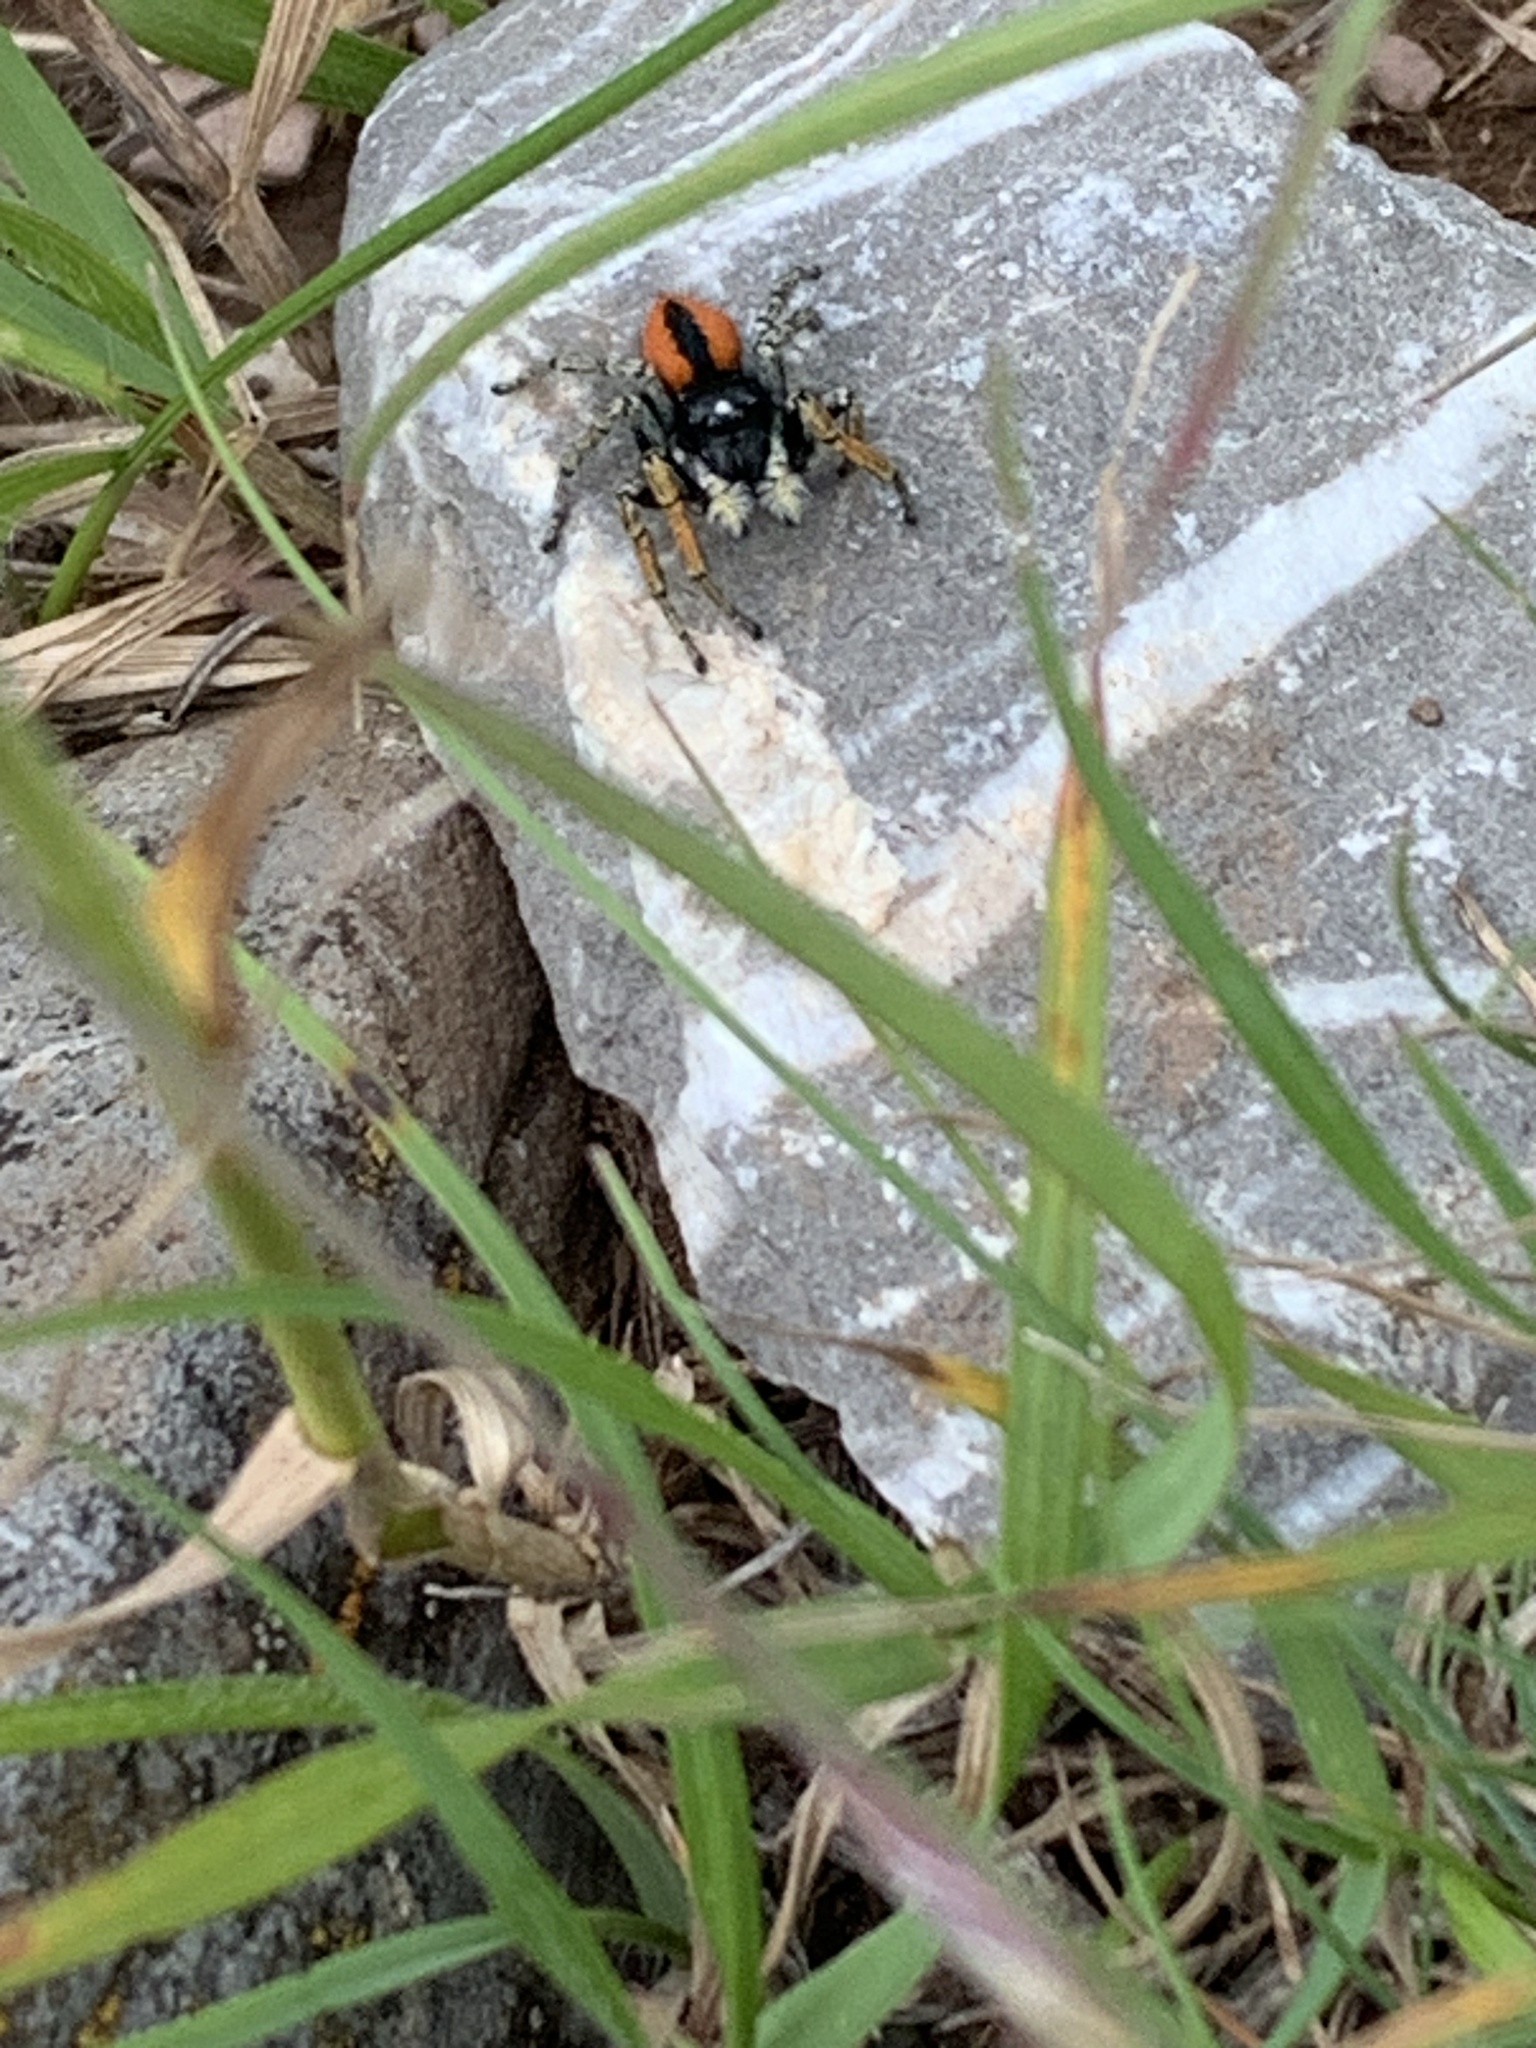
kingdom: Animalia
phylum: Arthropoda
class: Arachnida
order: Araneae
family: Salticidae
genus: Philaeus
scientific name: Philaeus chrysops
